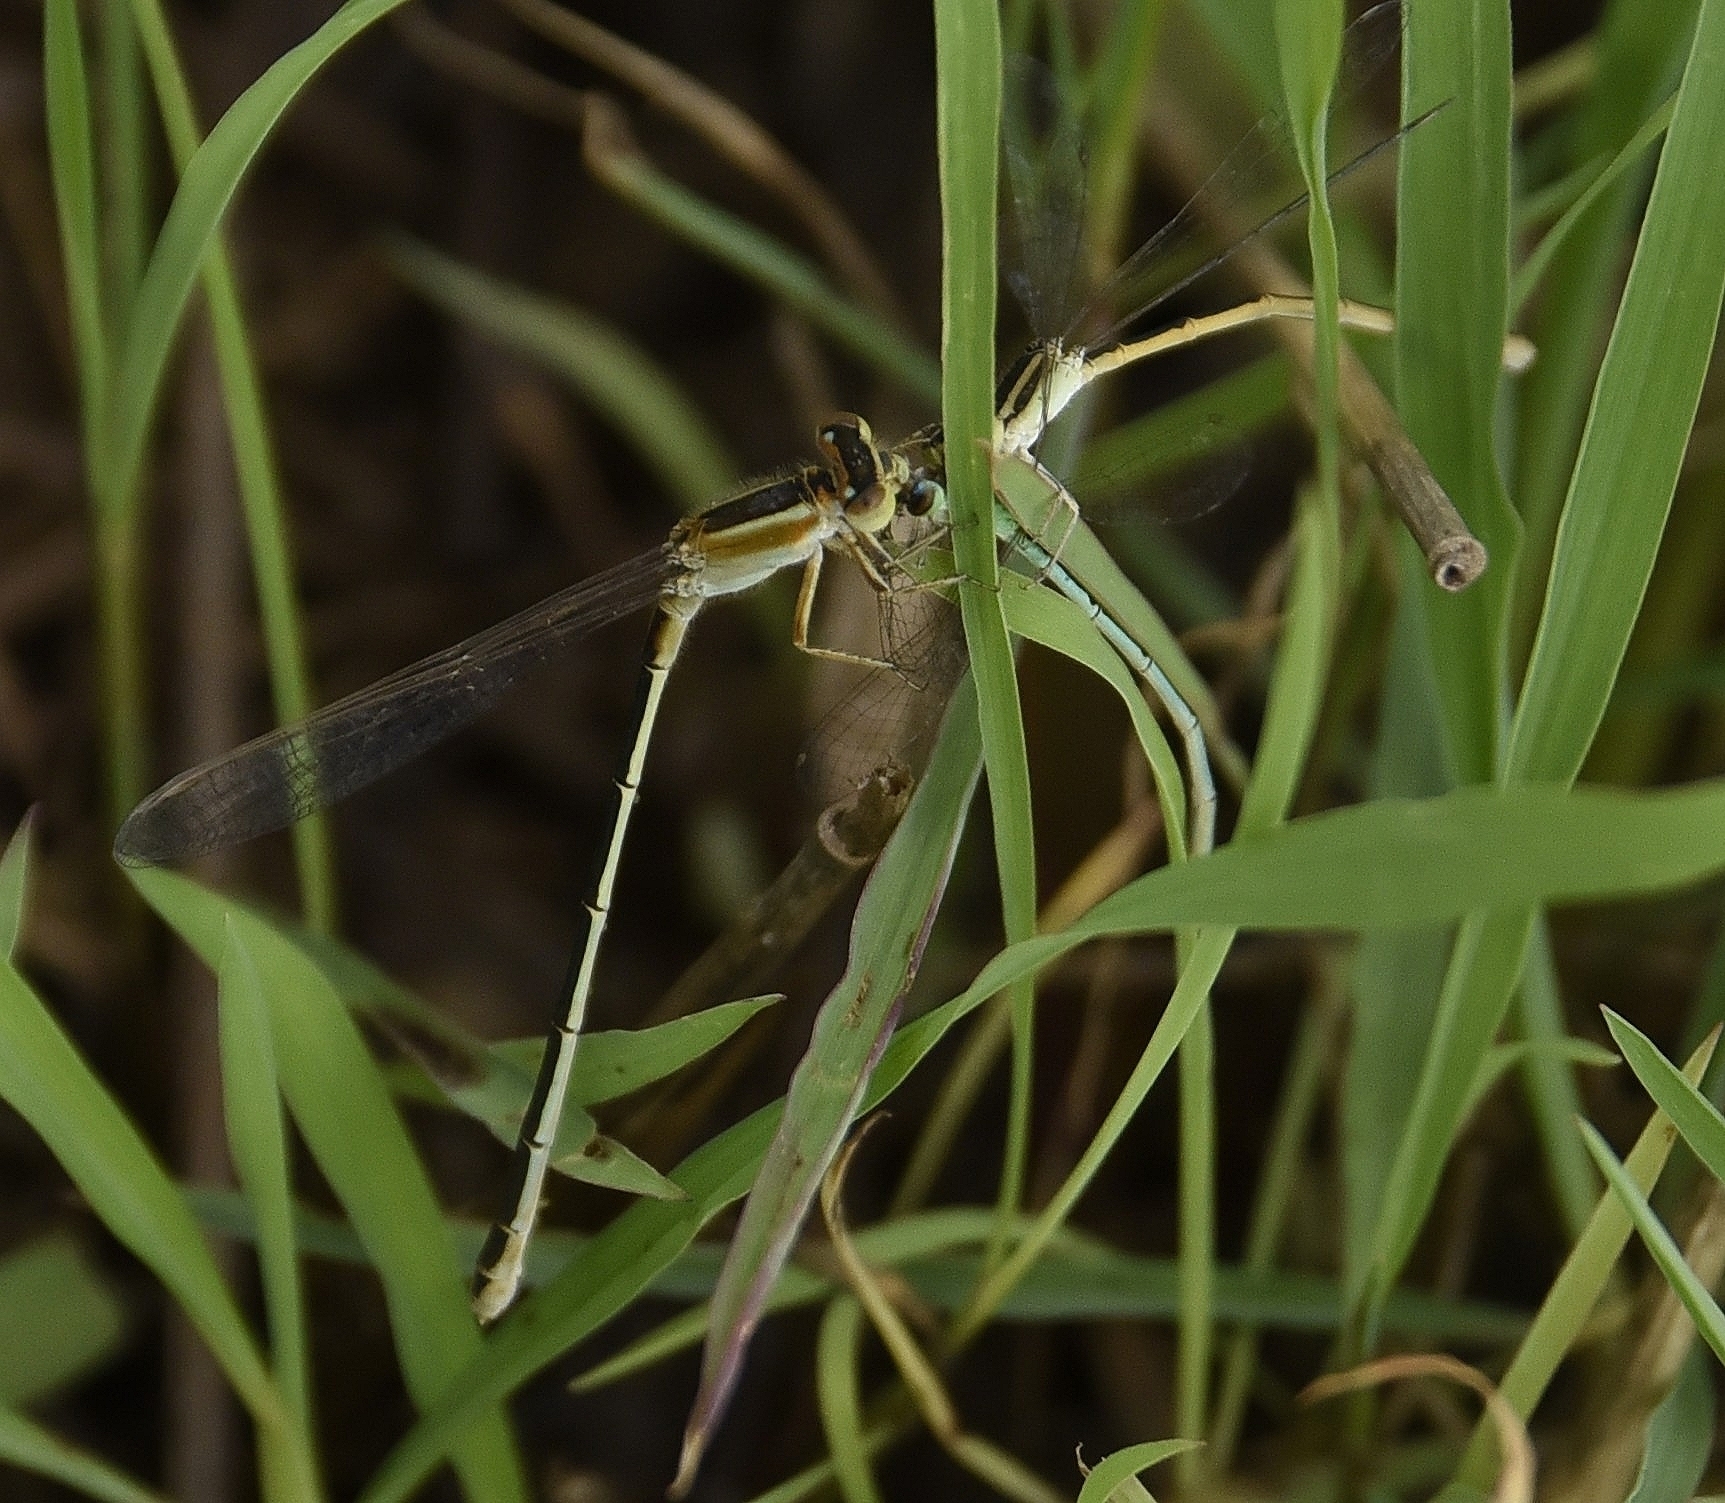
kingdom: Animalia
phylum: Arthropoda
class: Insecta
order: Odonata
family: Coenagrionidae
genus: Ischnura
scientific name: Ischnura senegalensis
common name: Tropical bluetail
